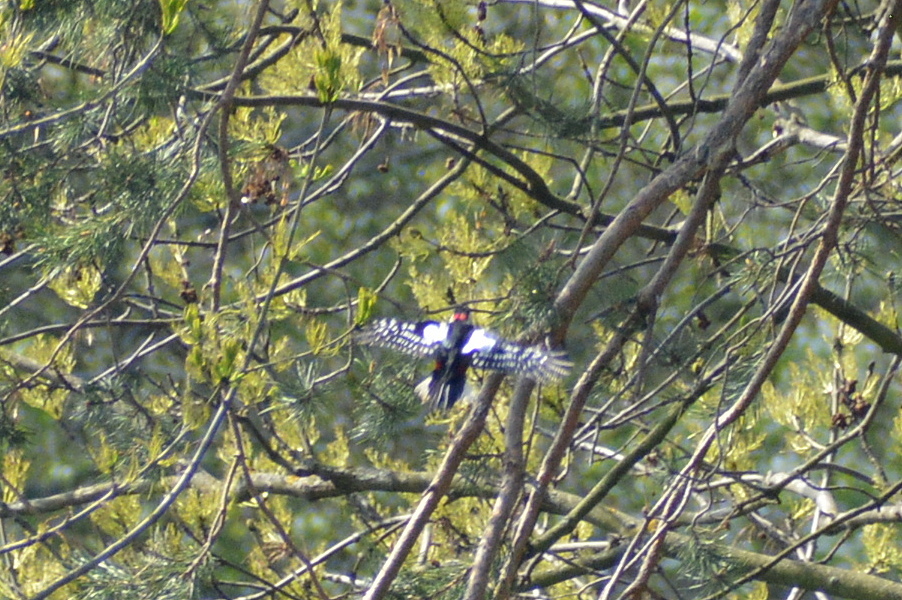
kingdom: Animalia
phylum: Chordata
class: Aves
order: Piciformes
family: Picidae
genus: Dendrocopos
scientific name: Dendrocopos major
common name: Great spotted woodpecker
